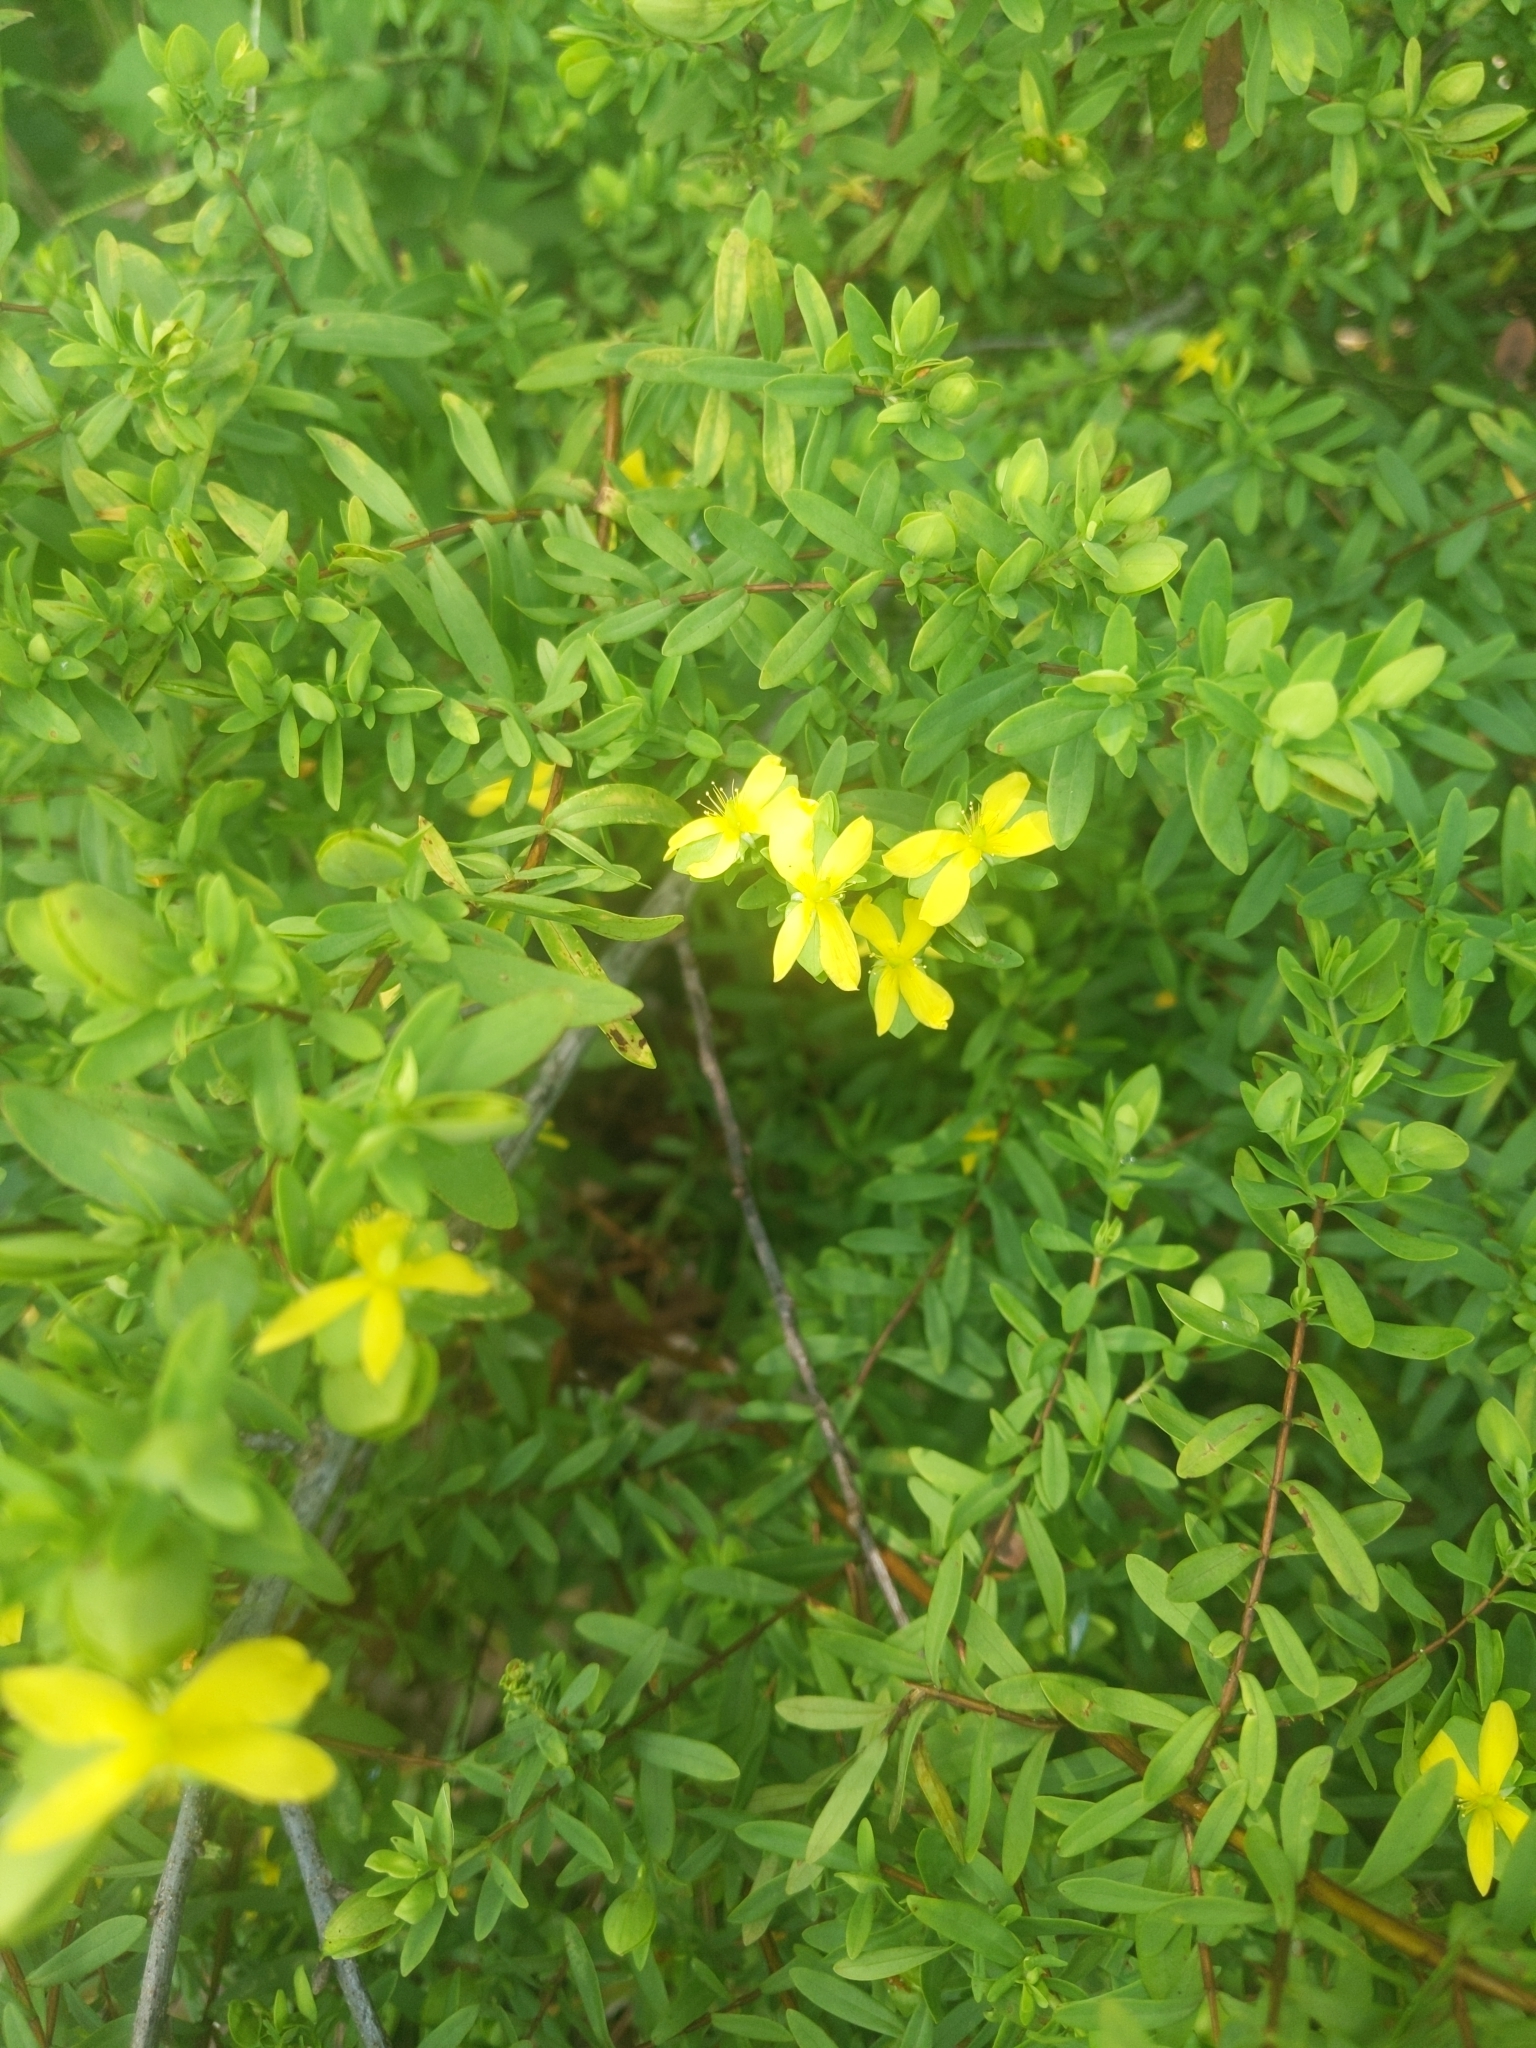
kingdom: Plantae
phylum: Tracheophyta
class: Magnoliopsida
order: Malpighiales
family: Hypericaceae
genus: Hypericum
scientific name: Hypericum hypericoides
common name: St. andrew's cross
